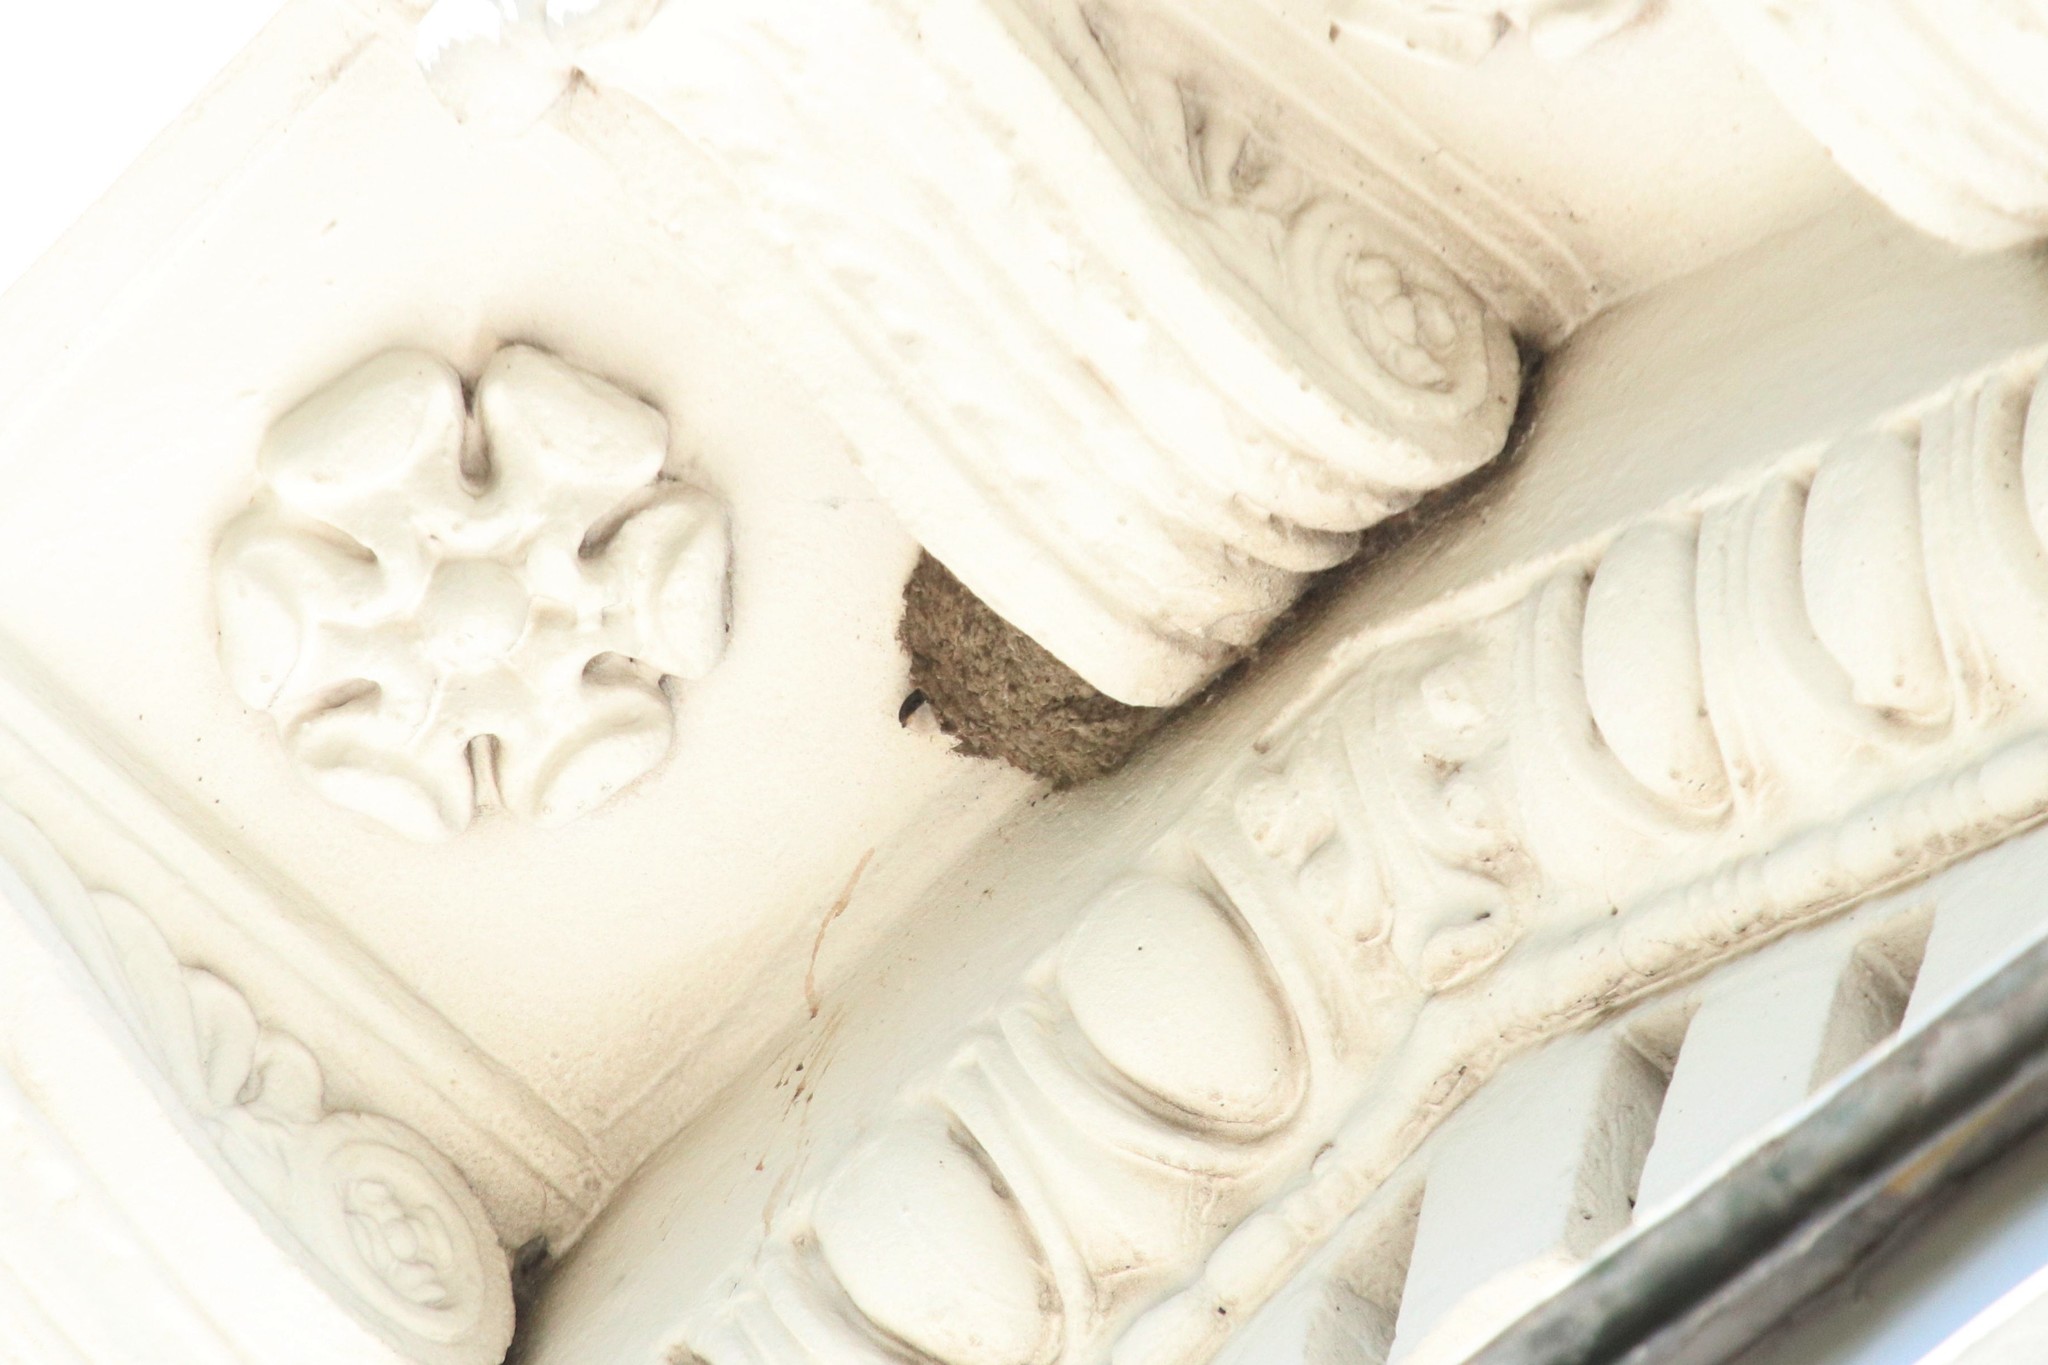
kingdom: Animalia
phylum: Chordata
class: Aves
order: Passeriformes
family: Hirundinidae
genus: Delichon
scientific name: Delichon urbicum
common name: Common house martin
